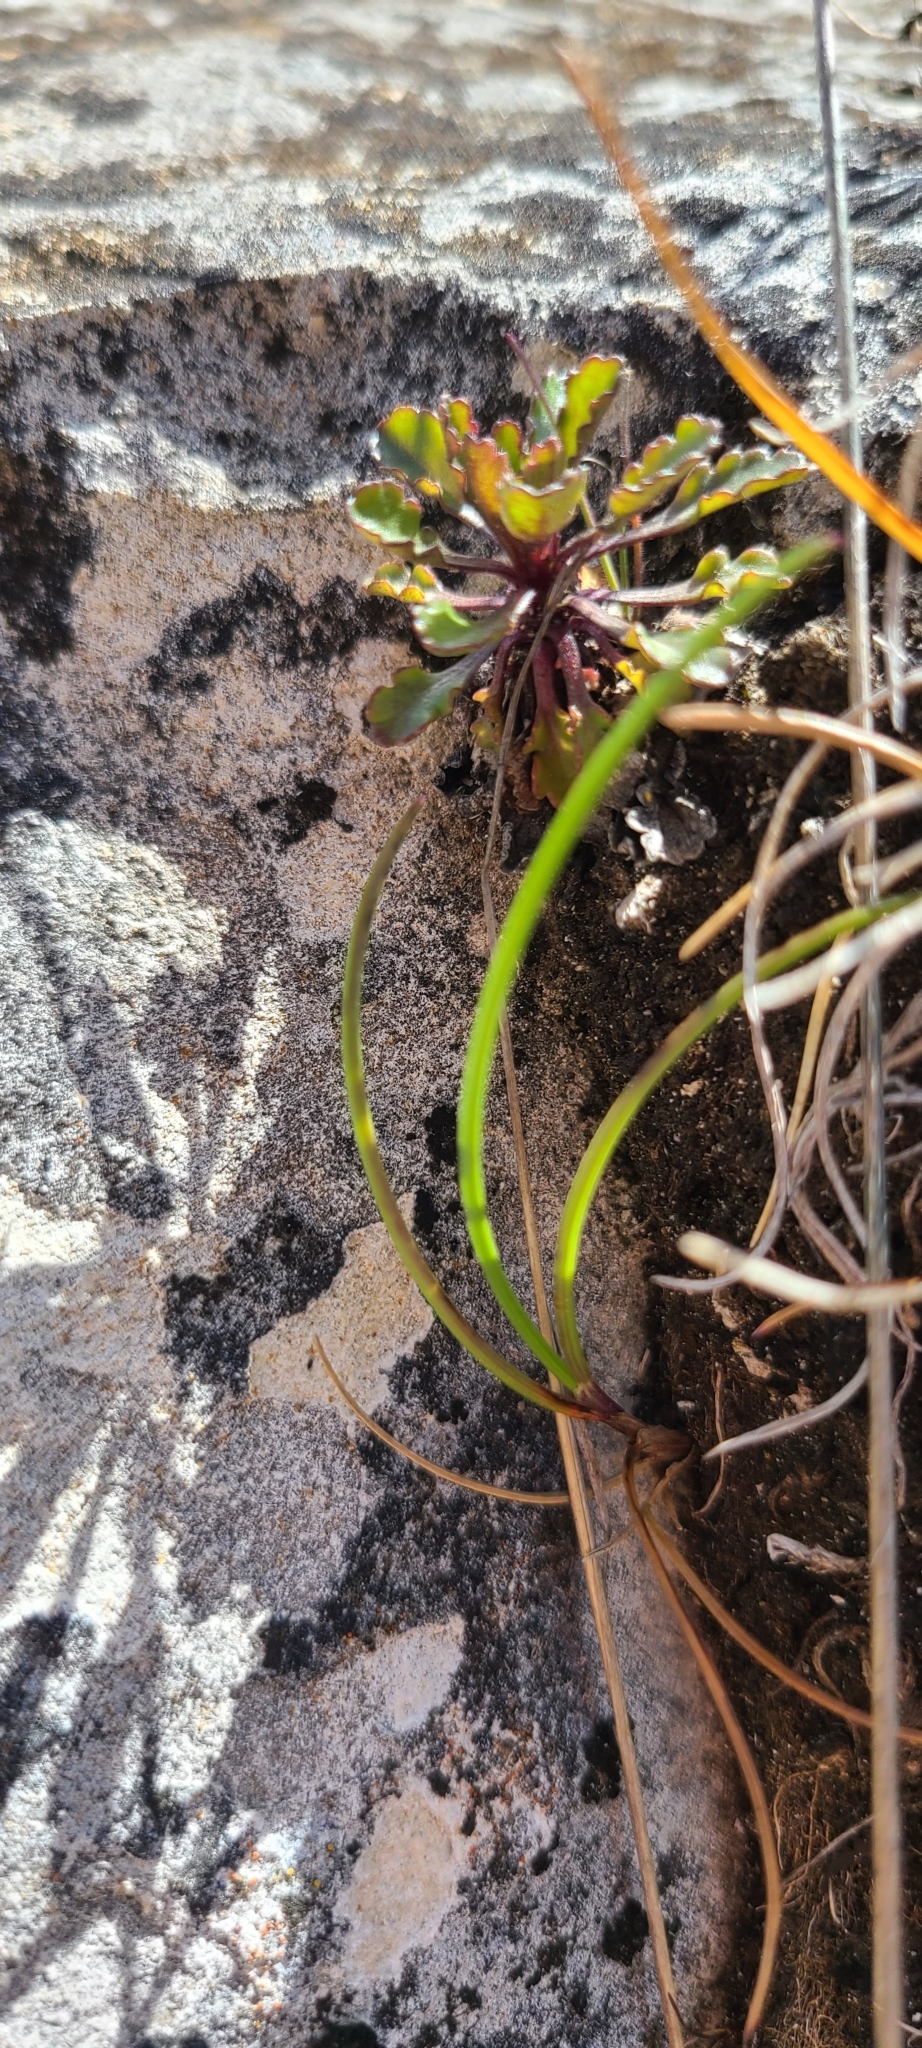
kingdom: Plantae
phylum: Tracheophyta
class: Magnoliopsida
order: Asterales
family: Campanulaceae
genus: Wahlenbergia
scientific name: Wahlenbergia albomarginata
